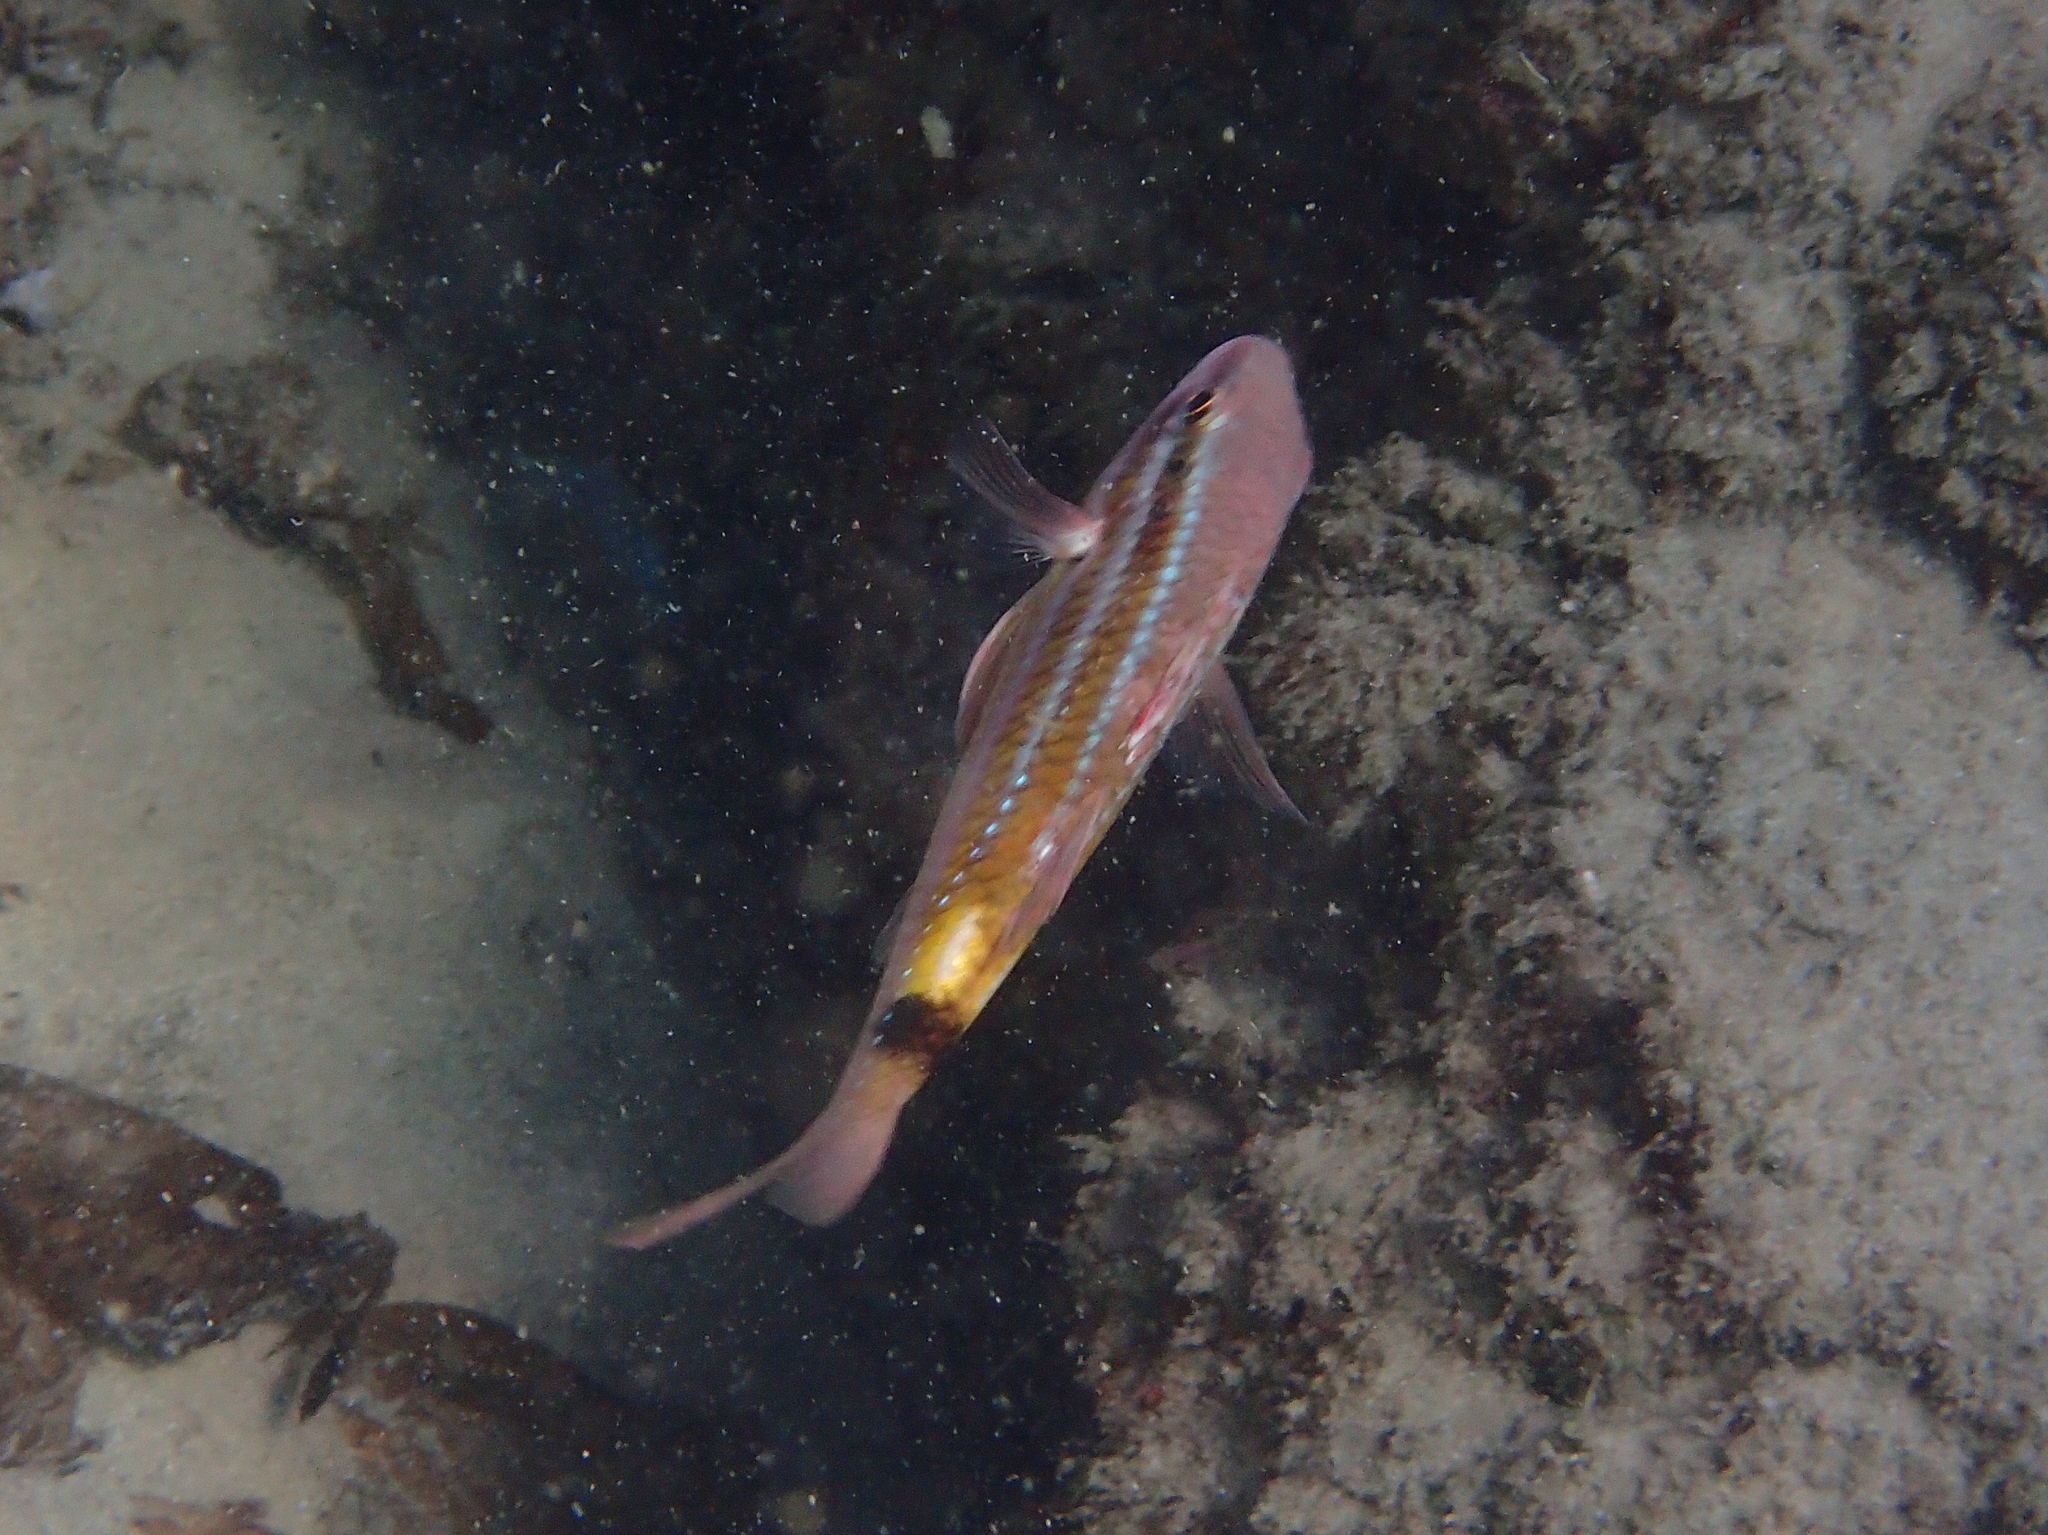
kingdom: Animalia
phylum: Chordata
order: Perciformes
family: Mullidae
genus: Parupeneus
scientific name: Parupeneus spilurus
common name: Blackspot goatfish
